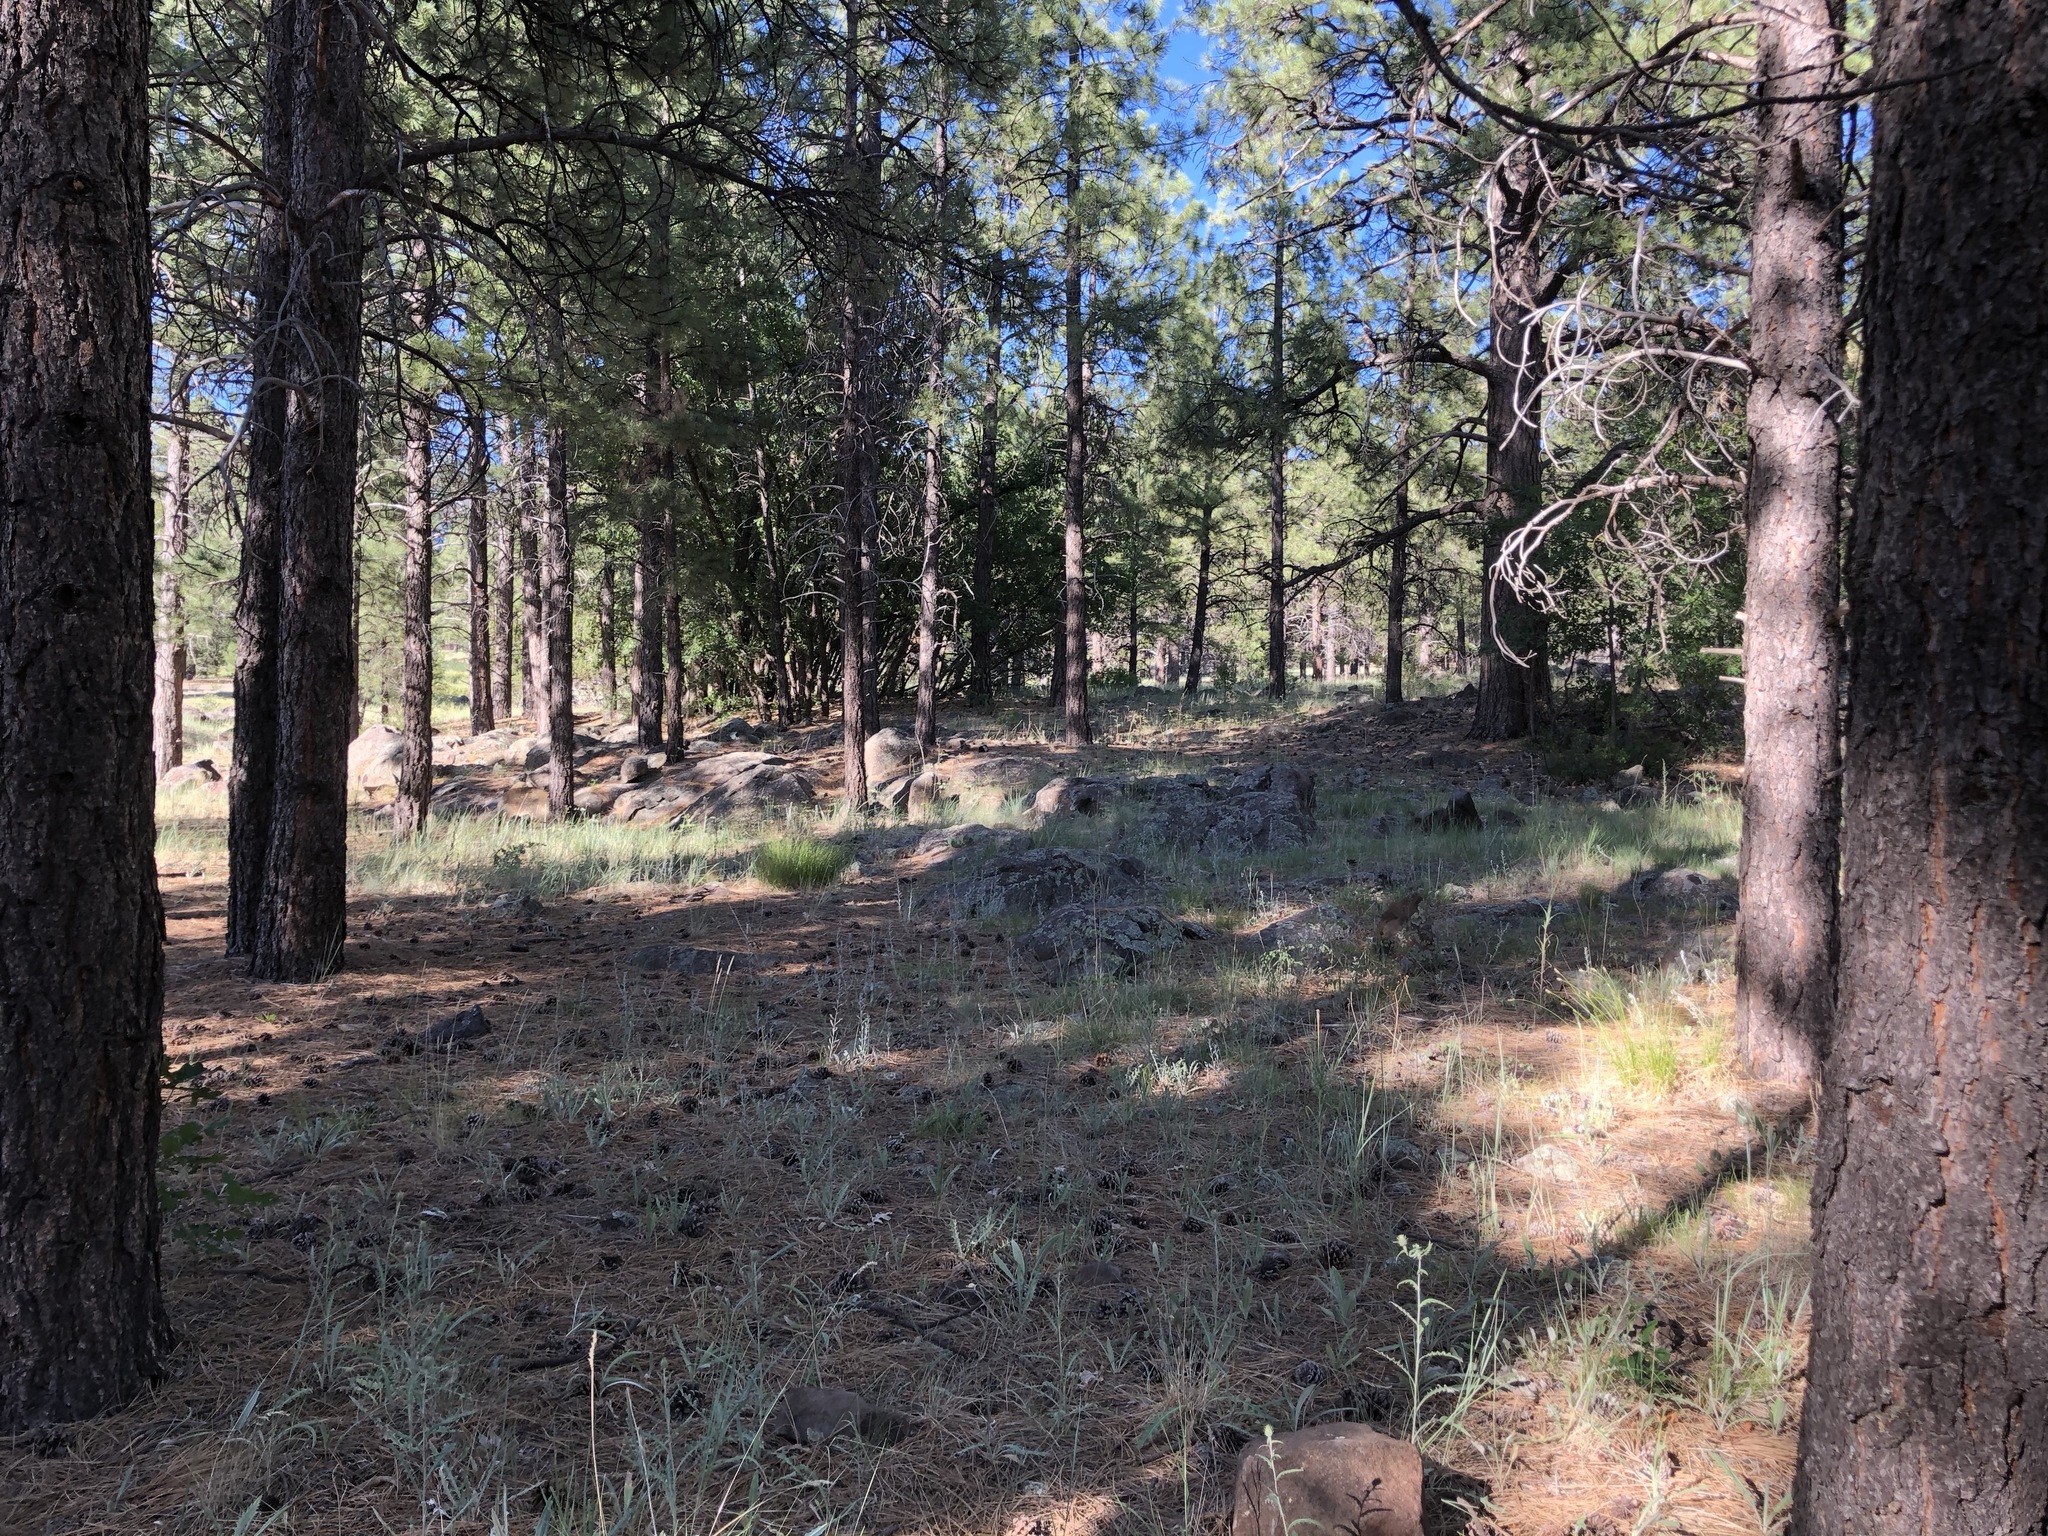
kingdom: Plantae
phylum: Tracheophyta
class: Pinopsida
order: Pinales
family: Pinaceae
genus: Pinus
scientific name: Pinus ponderosa
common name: Western yellow-pine
